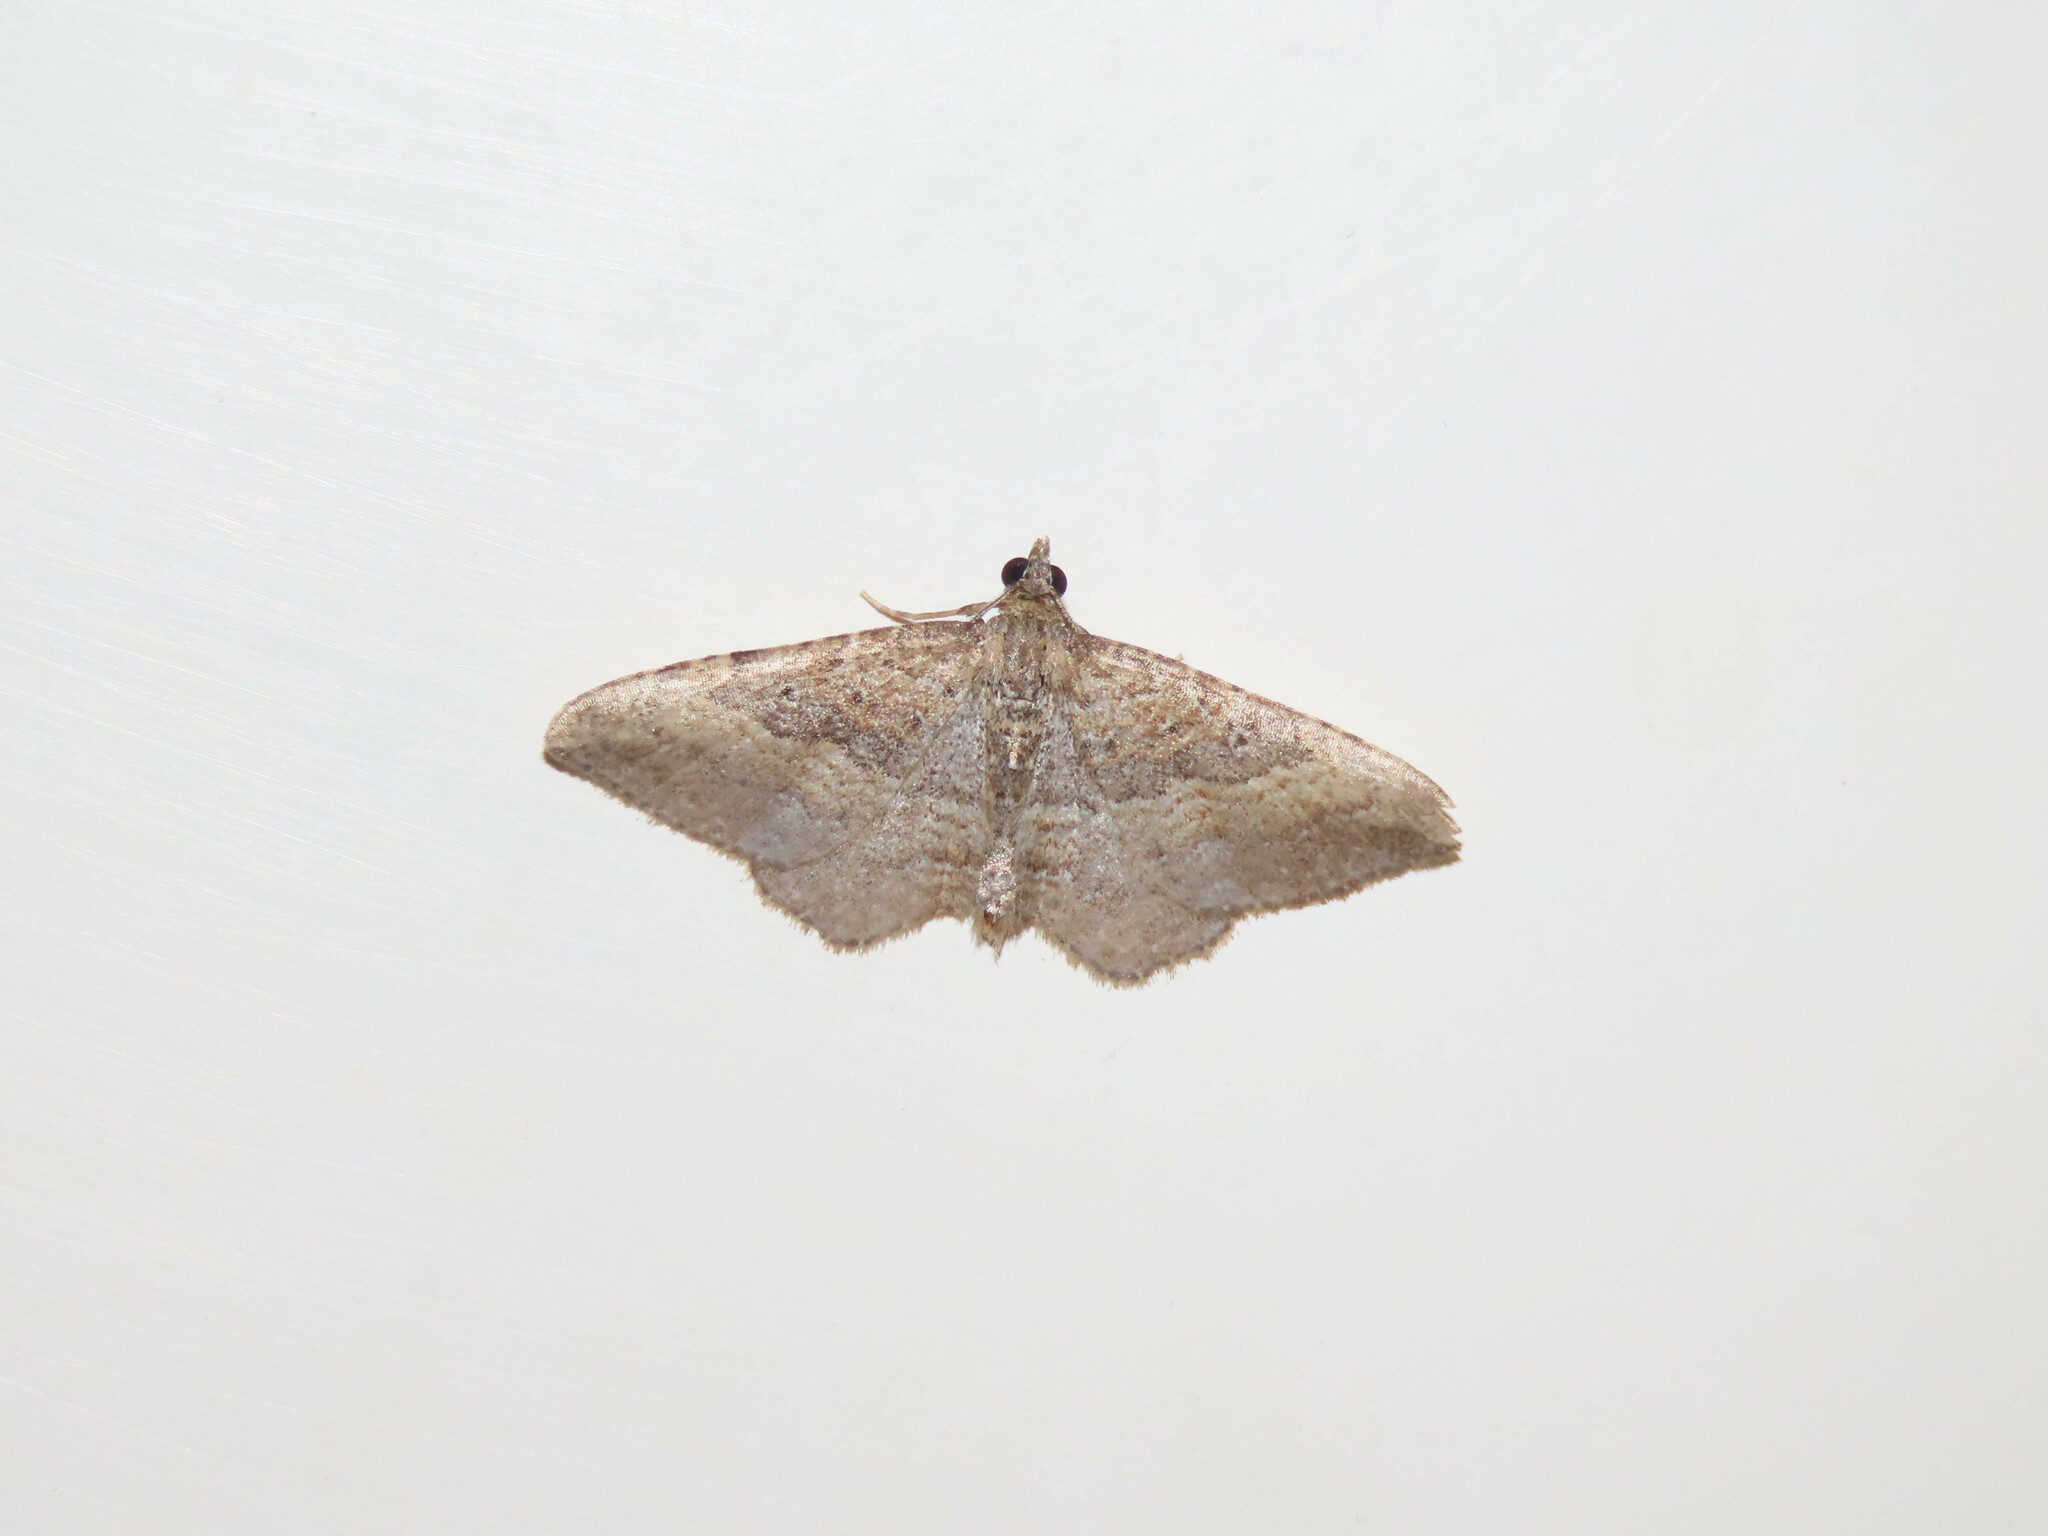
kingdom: Animalia
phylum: Arthropoda
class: Insecta
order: Lepidoptera
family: Geometridae
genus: Orthonama
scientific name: Orthonama obstipata
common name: The gem
